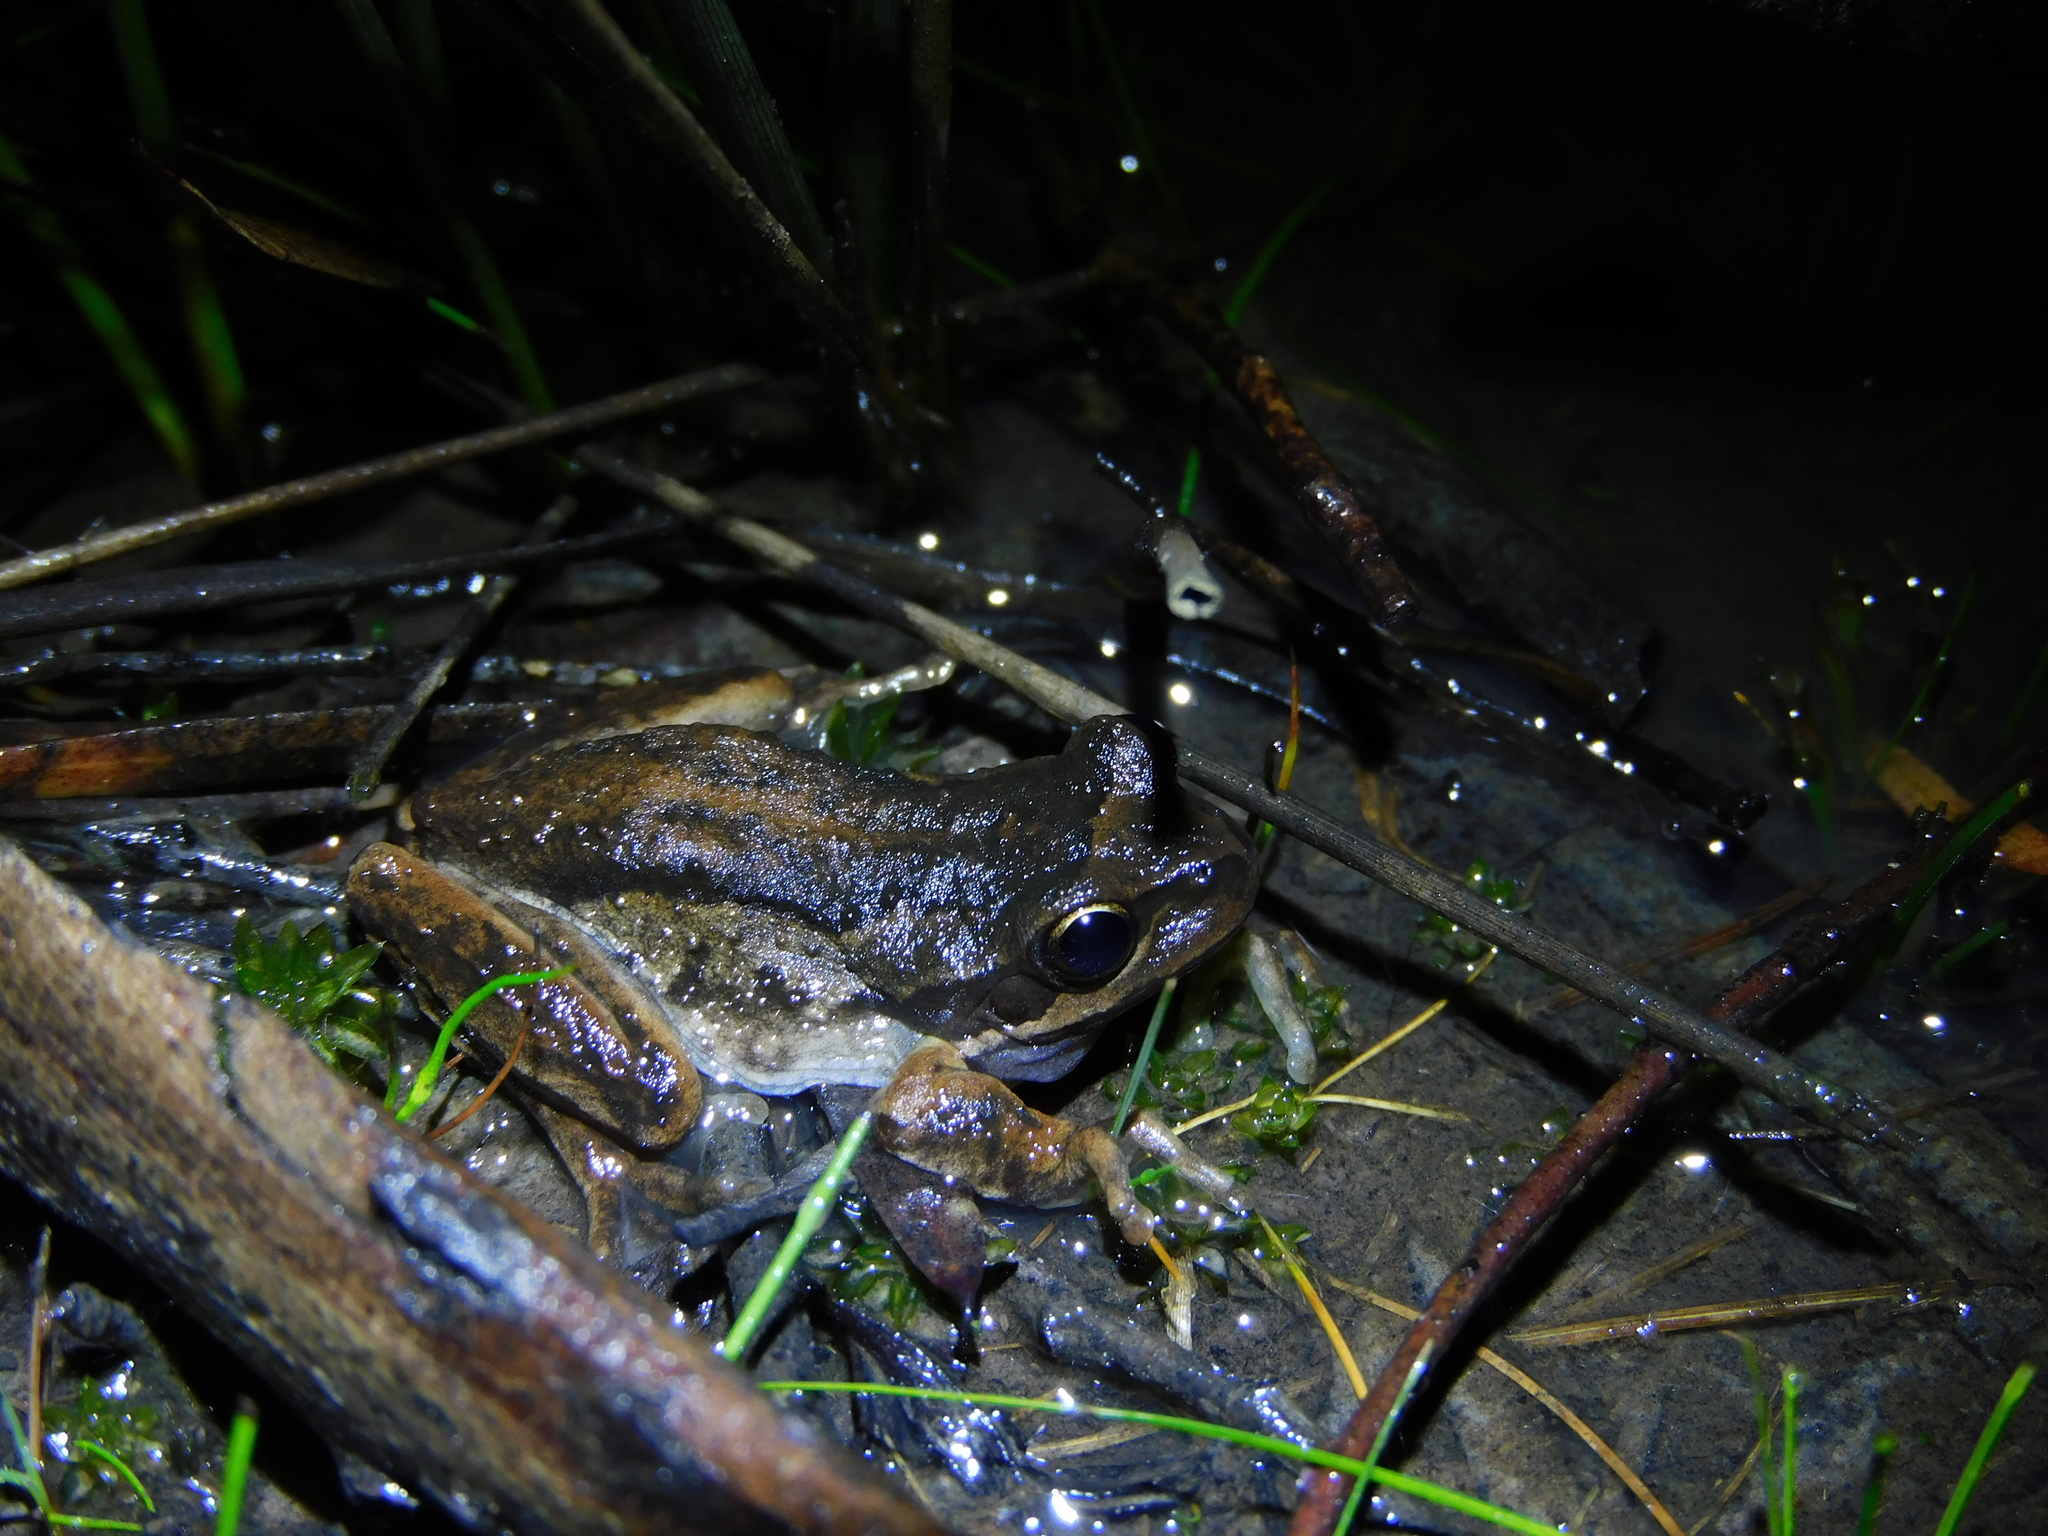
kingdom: Animalia
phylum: Chordata
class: Amphibia
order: Anura
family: Pelodryadidae
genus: Litoria
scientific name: Litoria ewingii
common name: Southern brown tree frog
